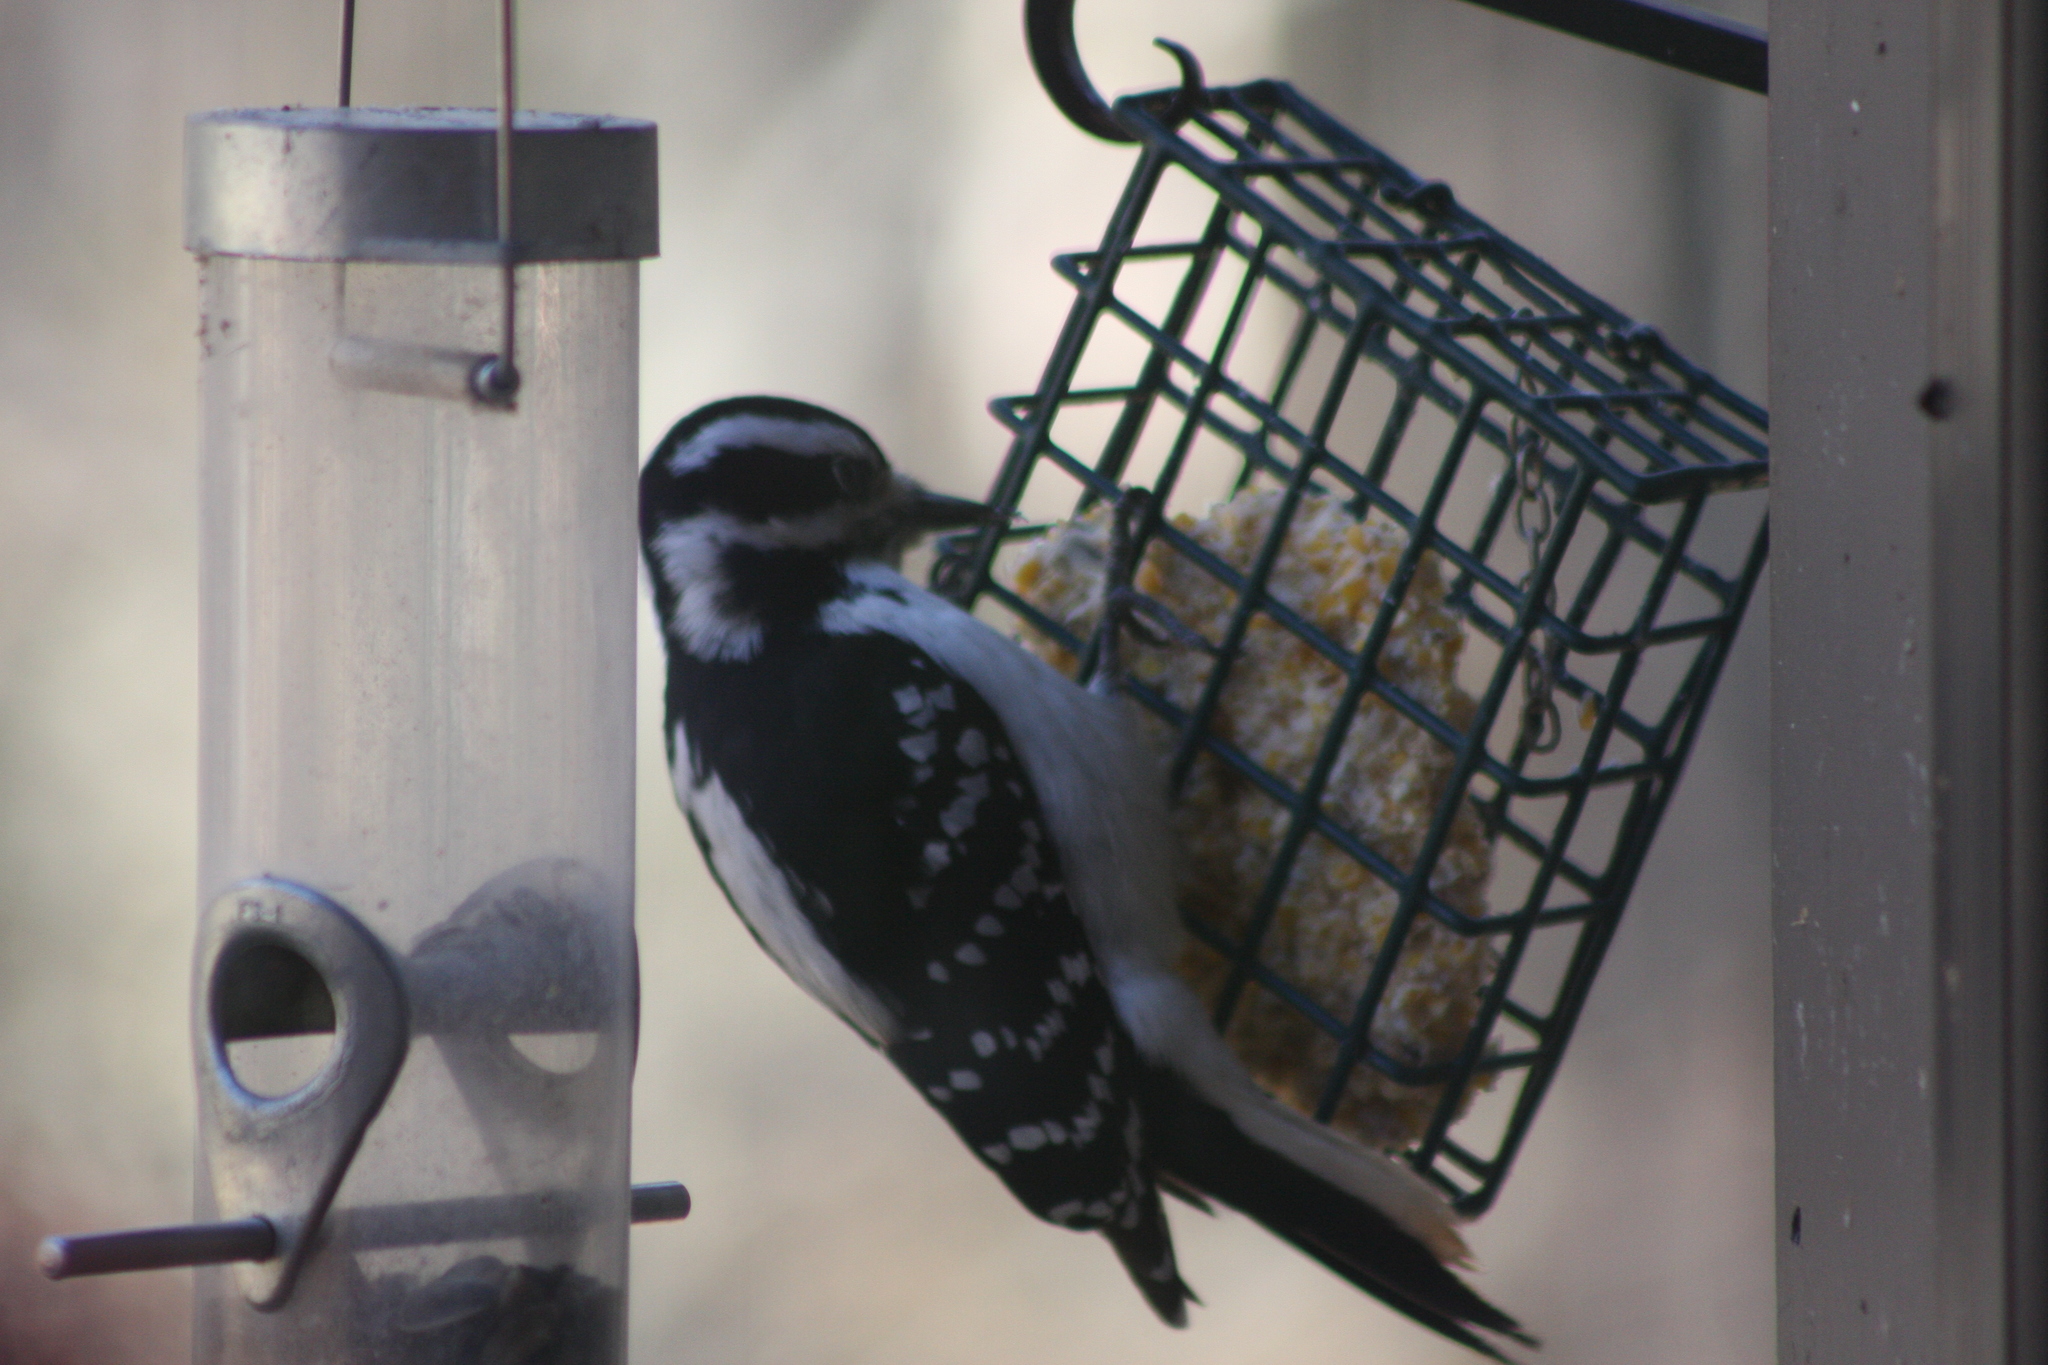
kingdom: Animalia
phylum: Chordata
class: Aves
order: Piciformes
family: Picidae
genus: Leuconotopicus
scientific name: Leuconotopicus villosus
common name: Hairy woodpecker
